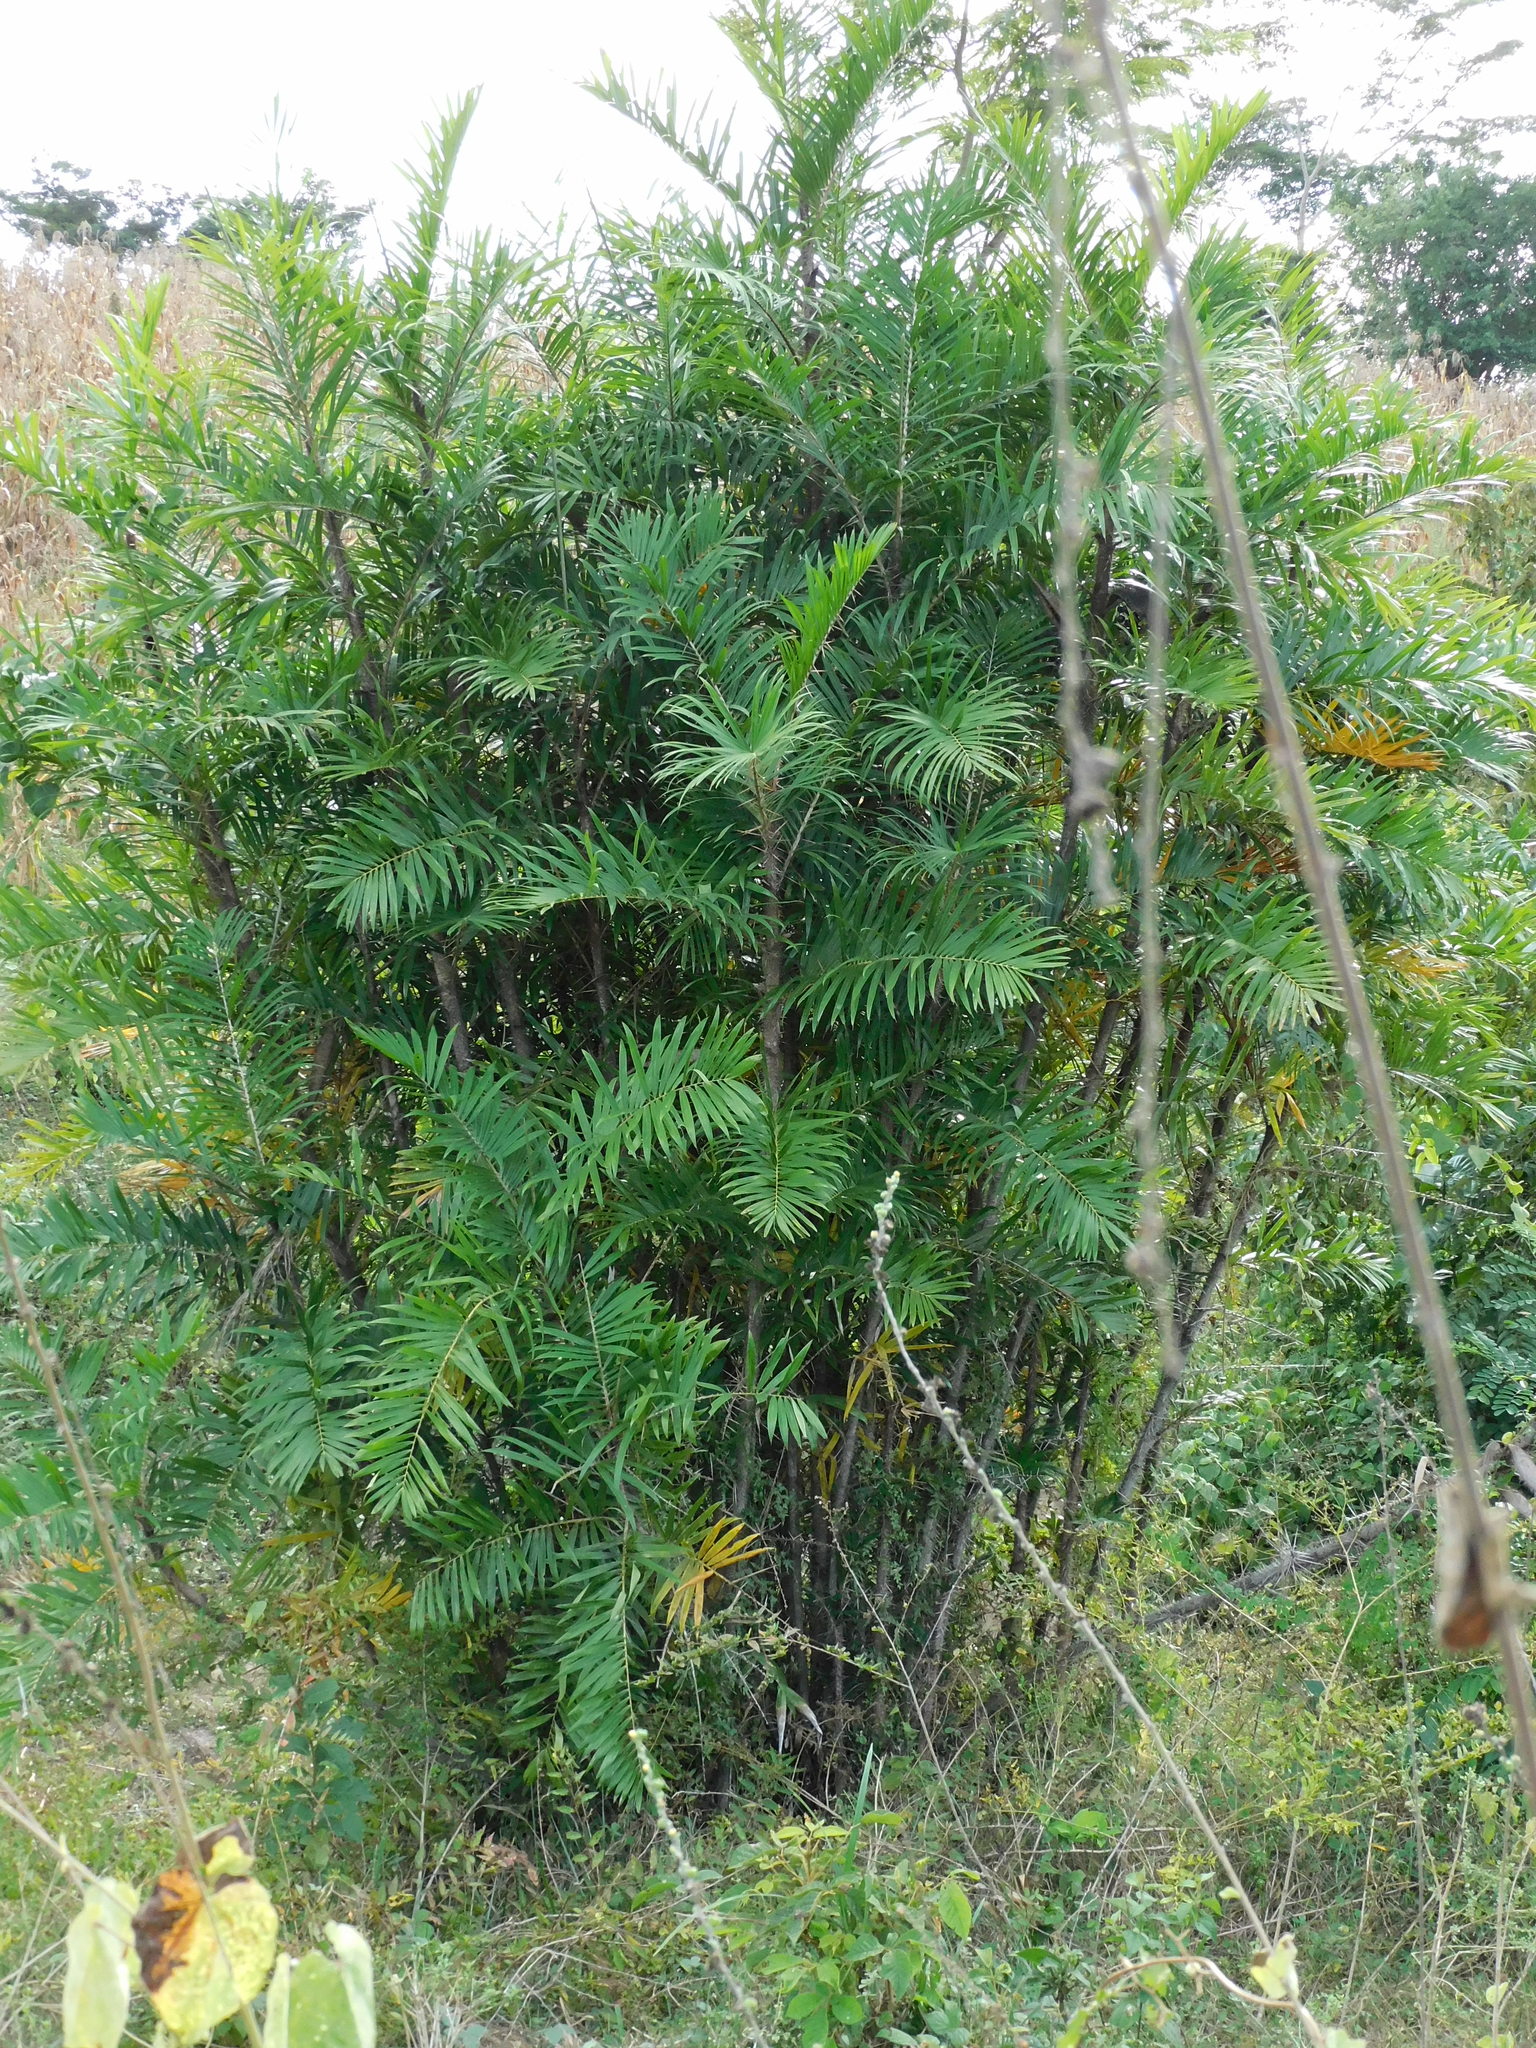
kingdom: Plantae
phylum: Tracheophyta
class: Liliopsida
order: Arecales
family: Arecaceae
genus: Bactris
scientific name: Bactris guineensis
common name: Tobago cane
